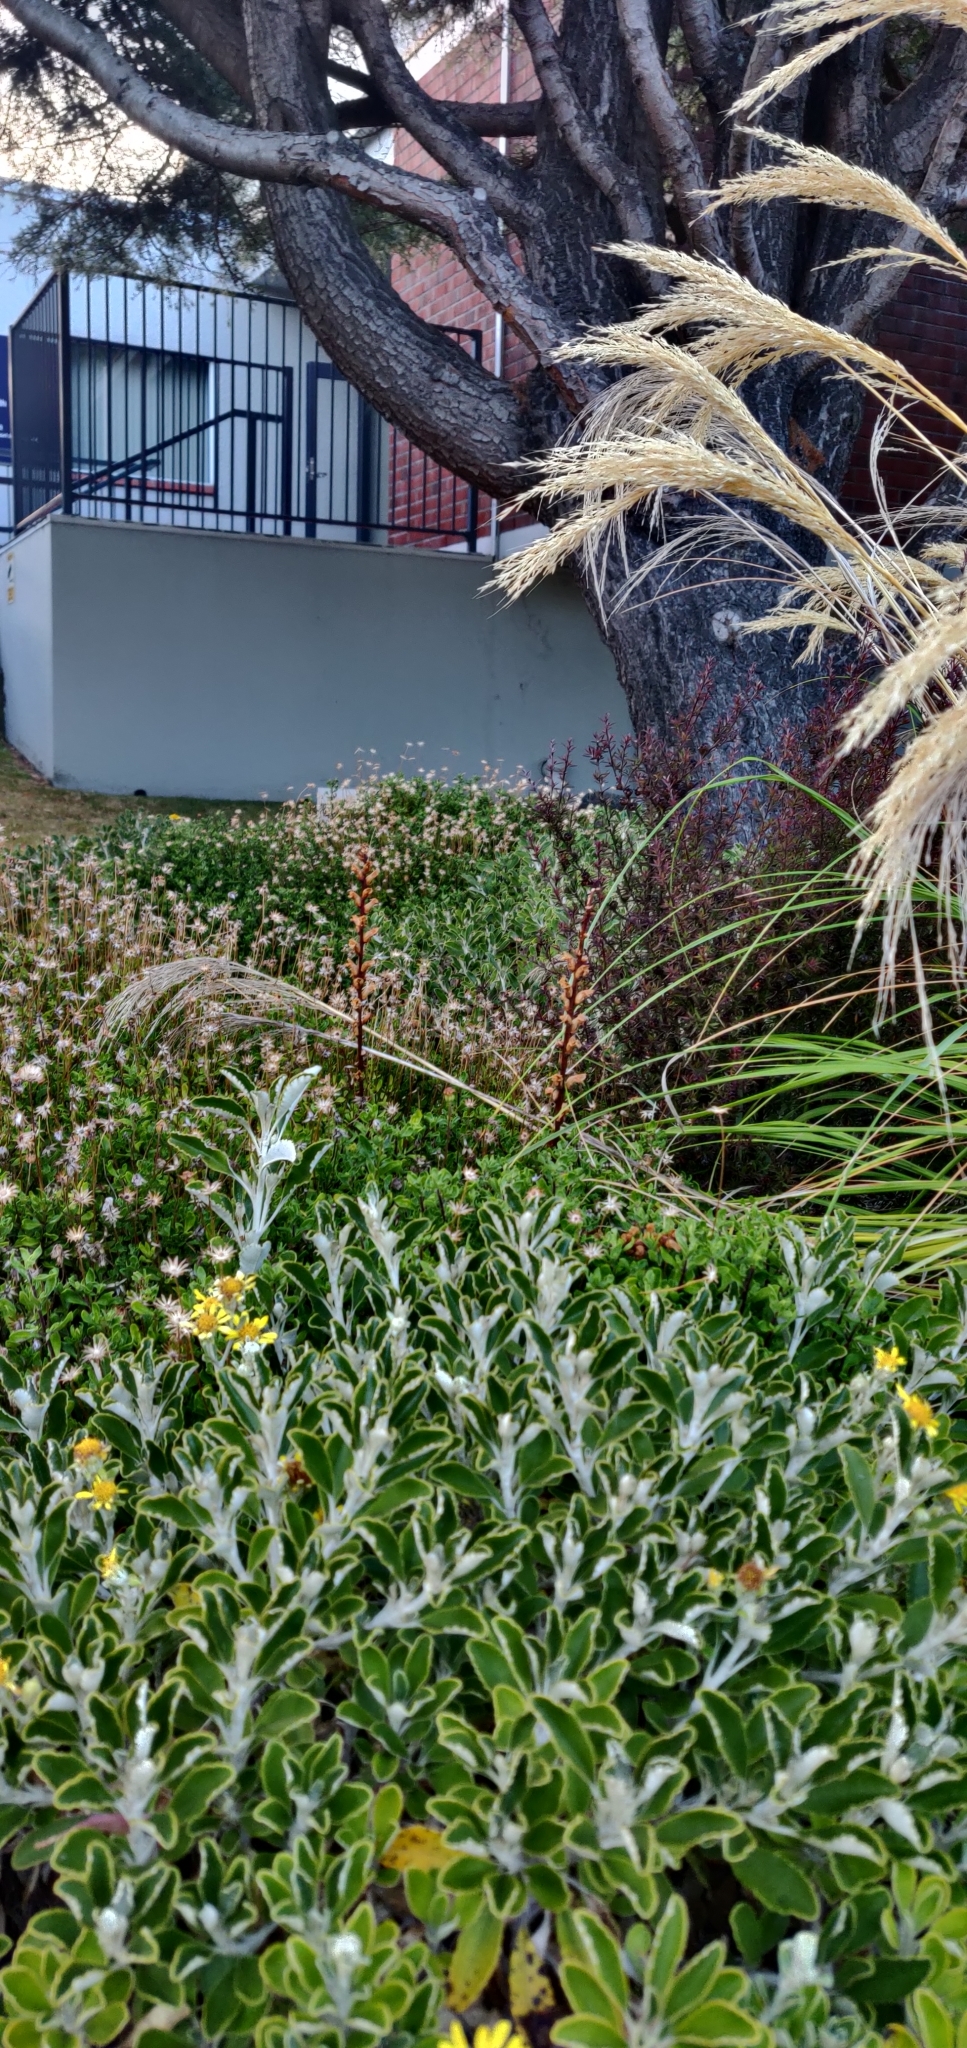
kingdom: Plantae
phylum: Tracheophyta
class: Magnoliopsida
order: Lamiales
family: Orobanchaceae
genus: Orobanche
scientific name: Orobanche minor
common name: Common broomrape
